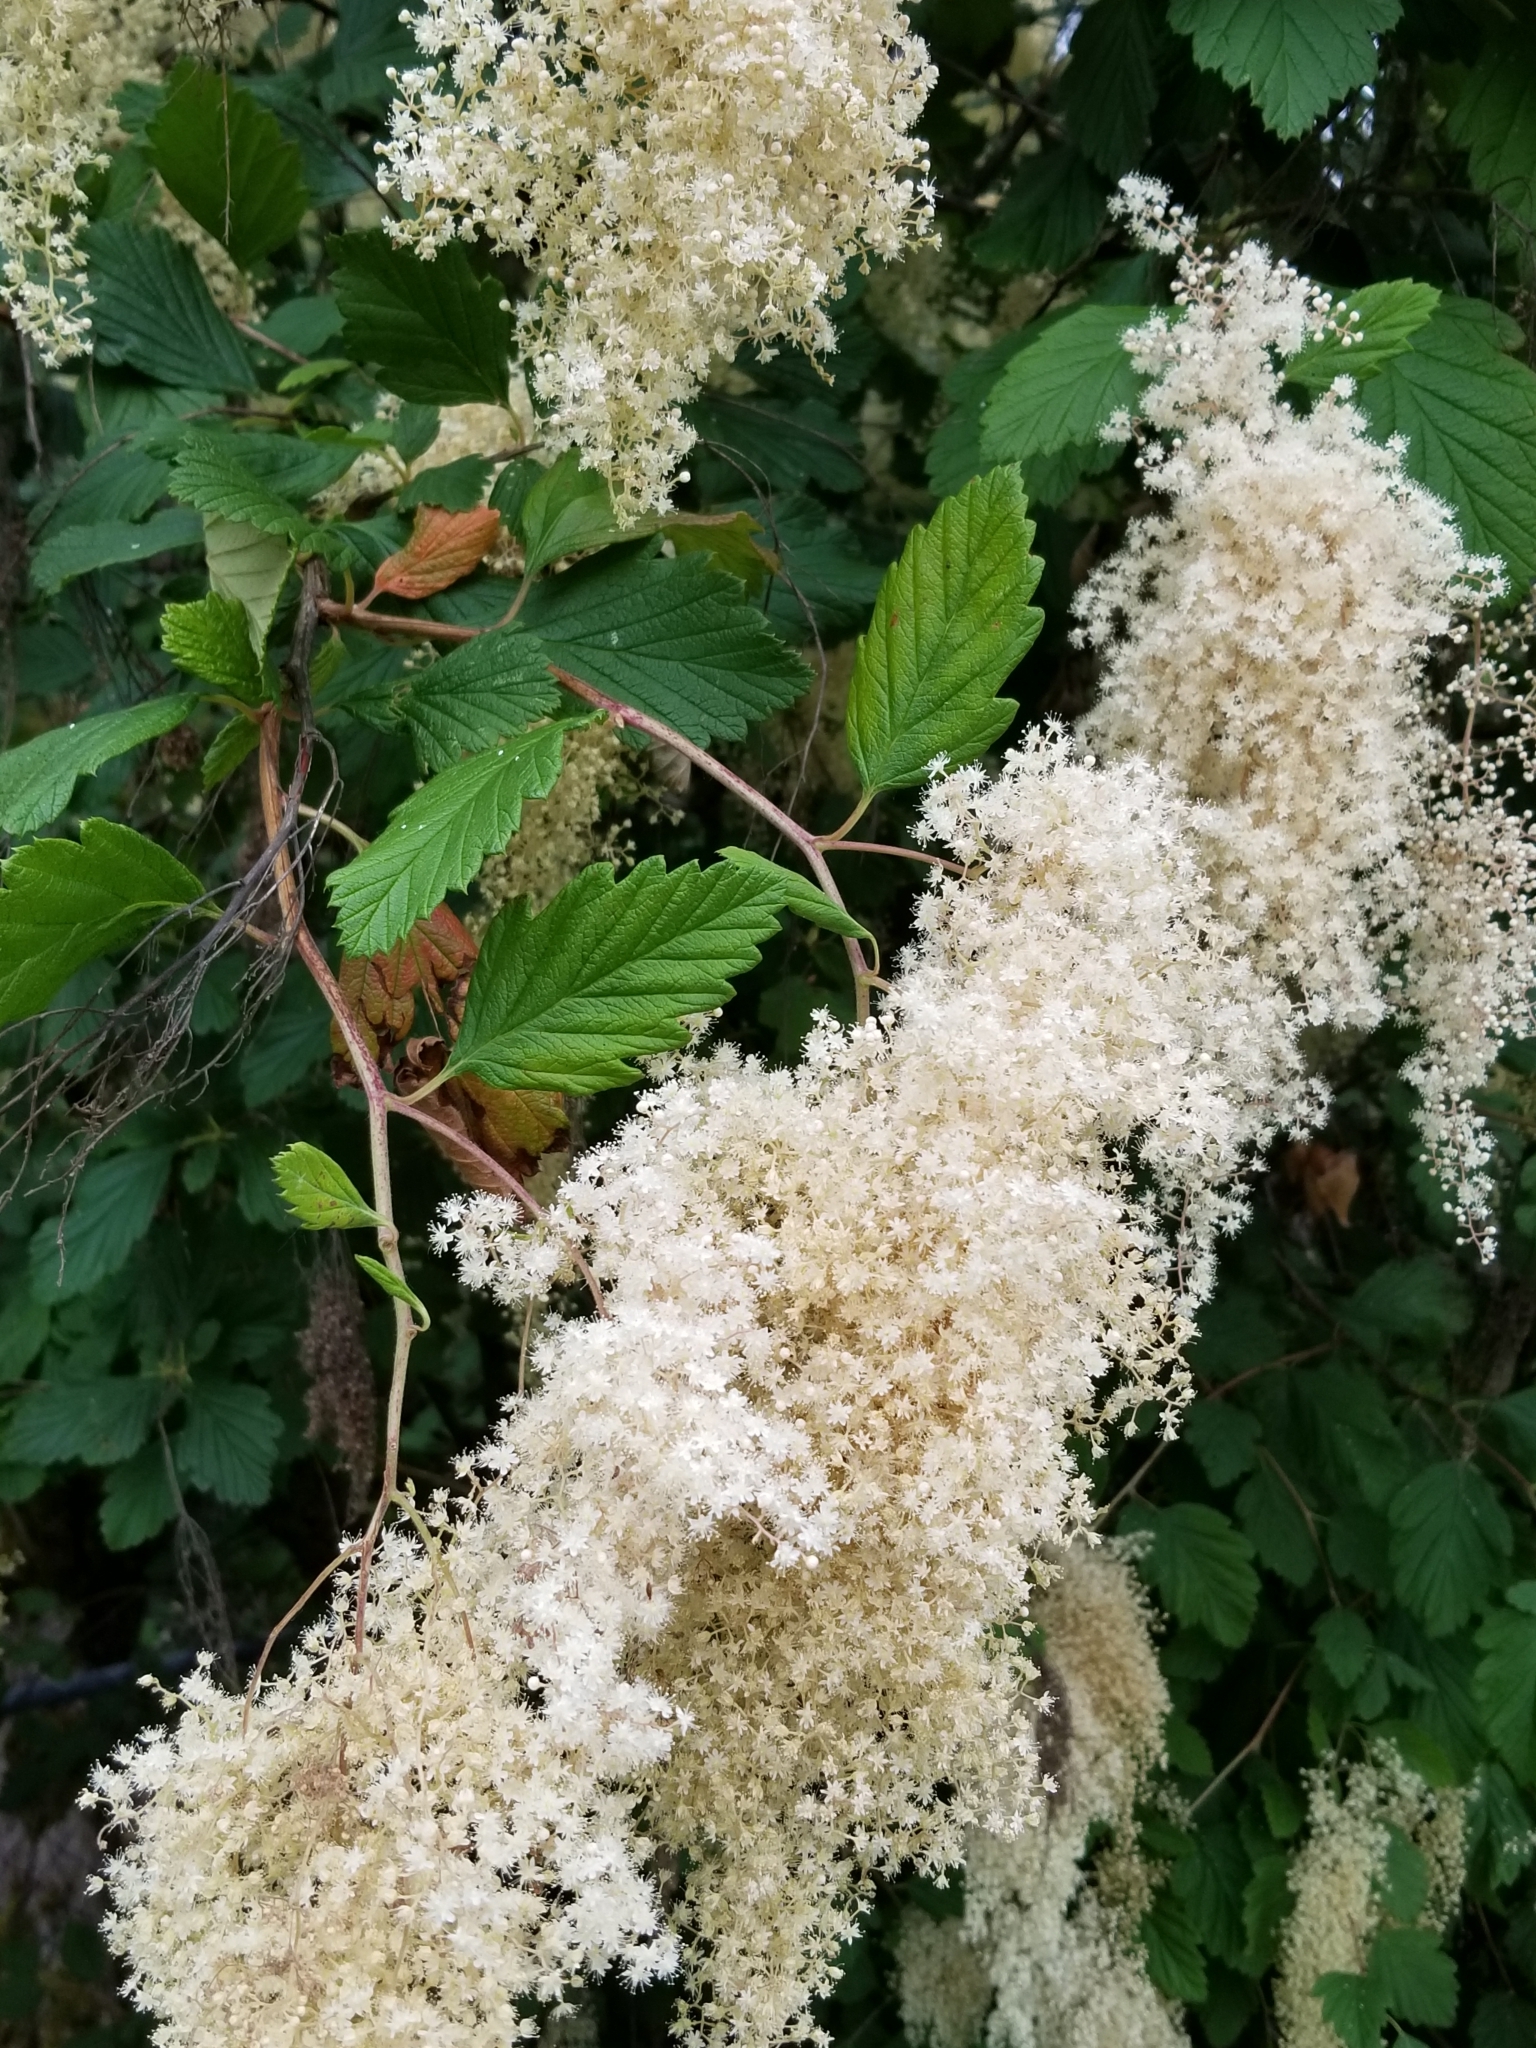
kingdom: Plantae
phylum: Tracheophyta
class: Magnoliopsida
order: Rosales
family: Rosaceae
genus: Holodiscus
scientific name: Holodiscus discolor
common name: Oceanspray
